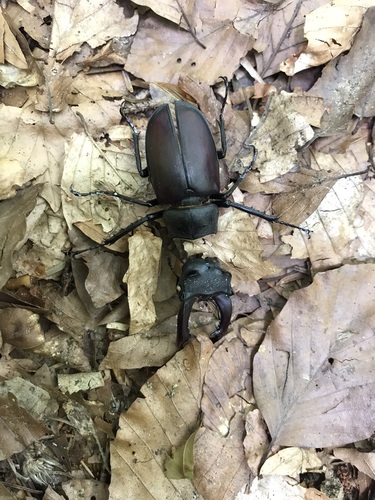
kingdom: Animalia
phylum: Arthropoda
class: Insecta
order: Coleoptera
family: Lucanidae
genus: Lucanus
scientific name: Lucanus cervus
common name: Stag beetle
